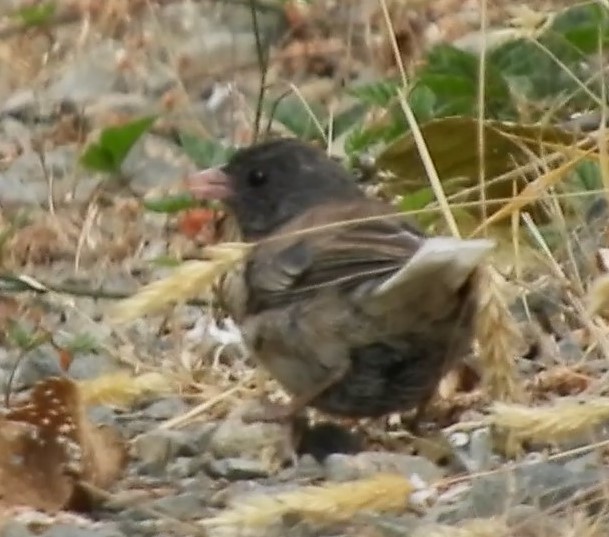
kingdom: Animalia
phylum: Chordata
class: Aves
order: Passeriformes
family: Passerellidae
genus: Junco
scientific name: Junco hyemalis
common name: Dark-eyed junco
